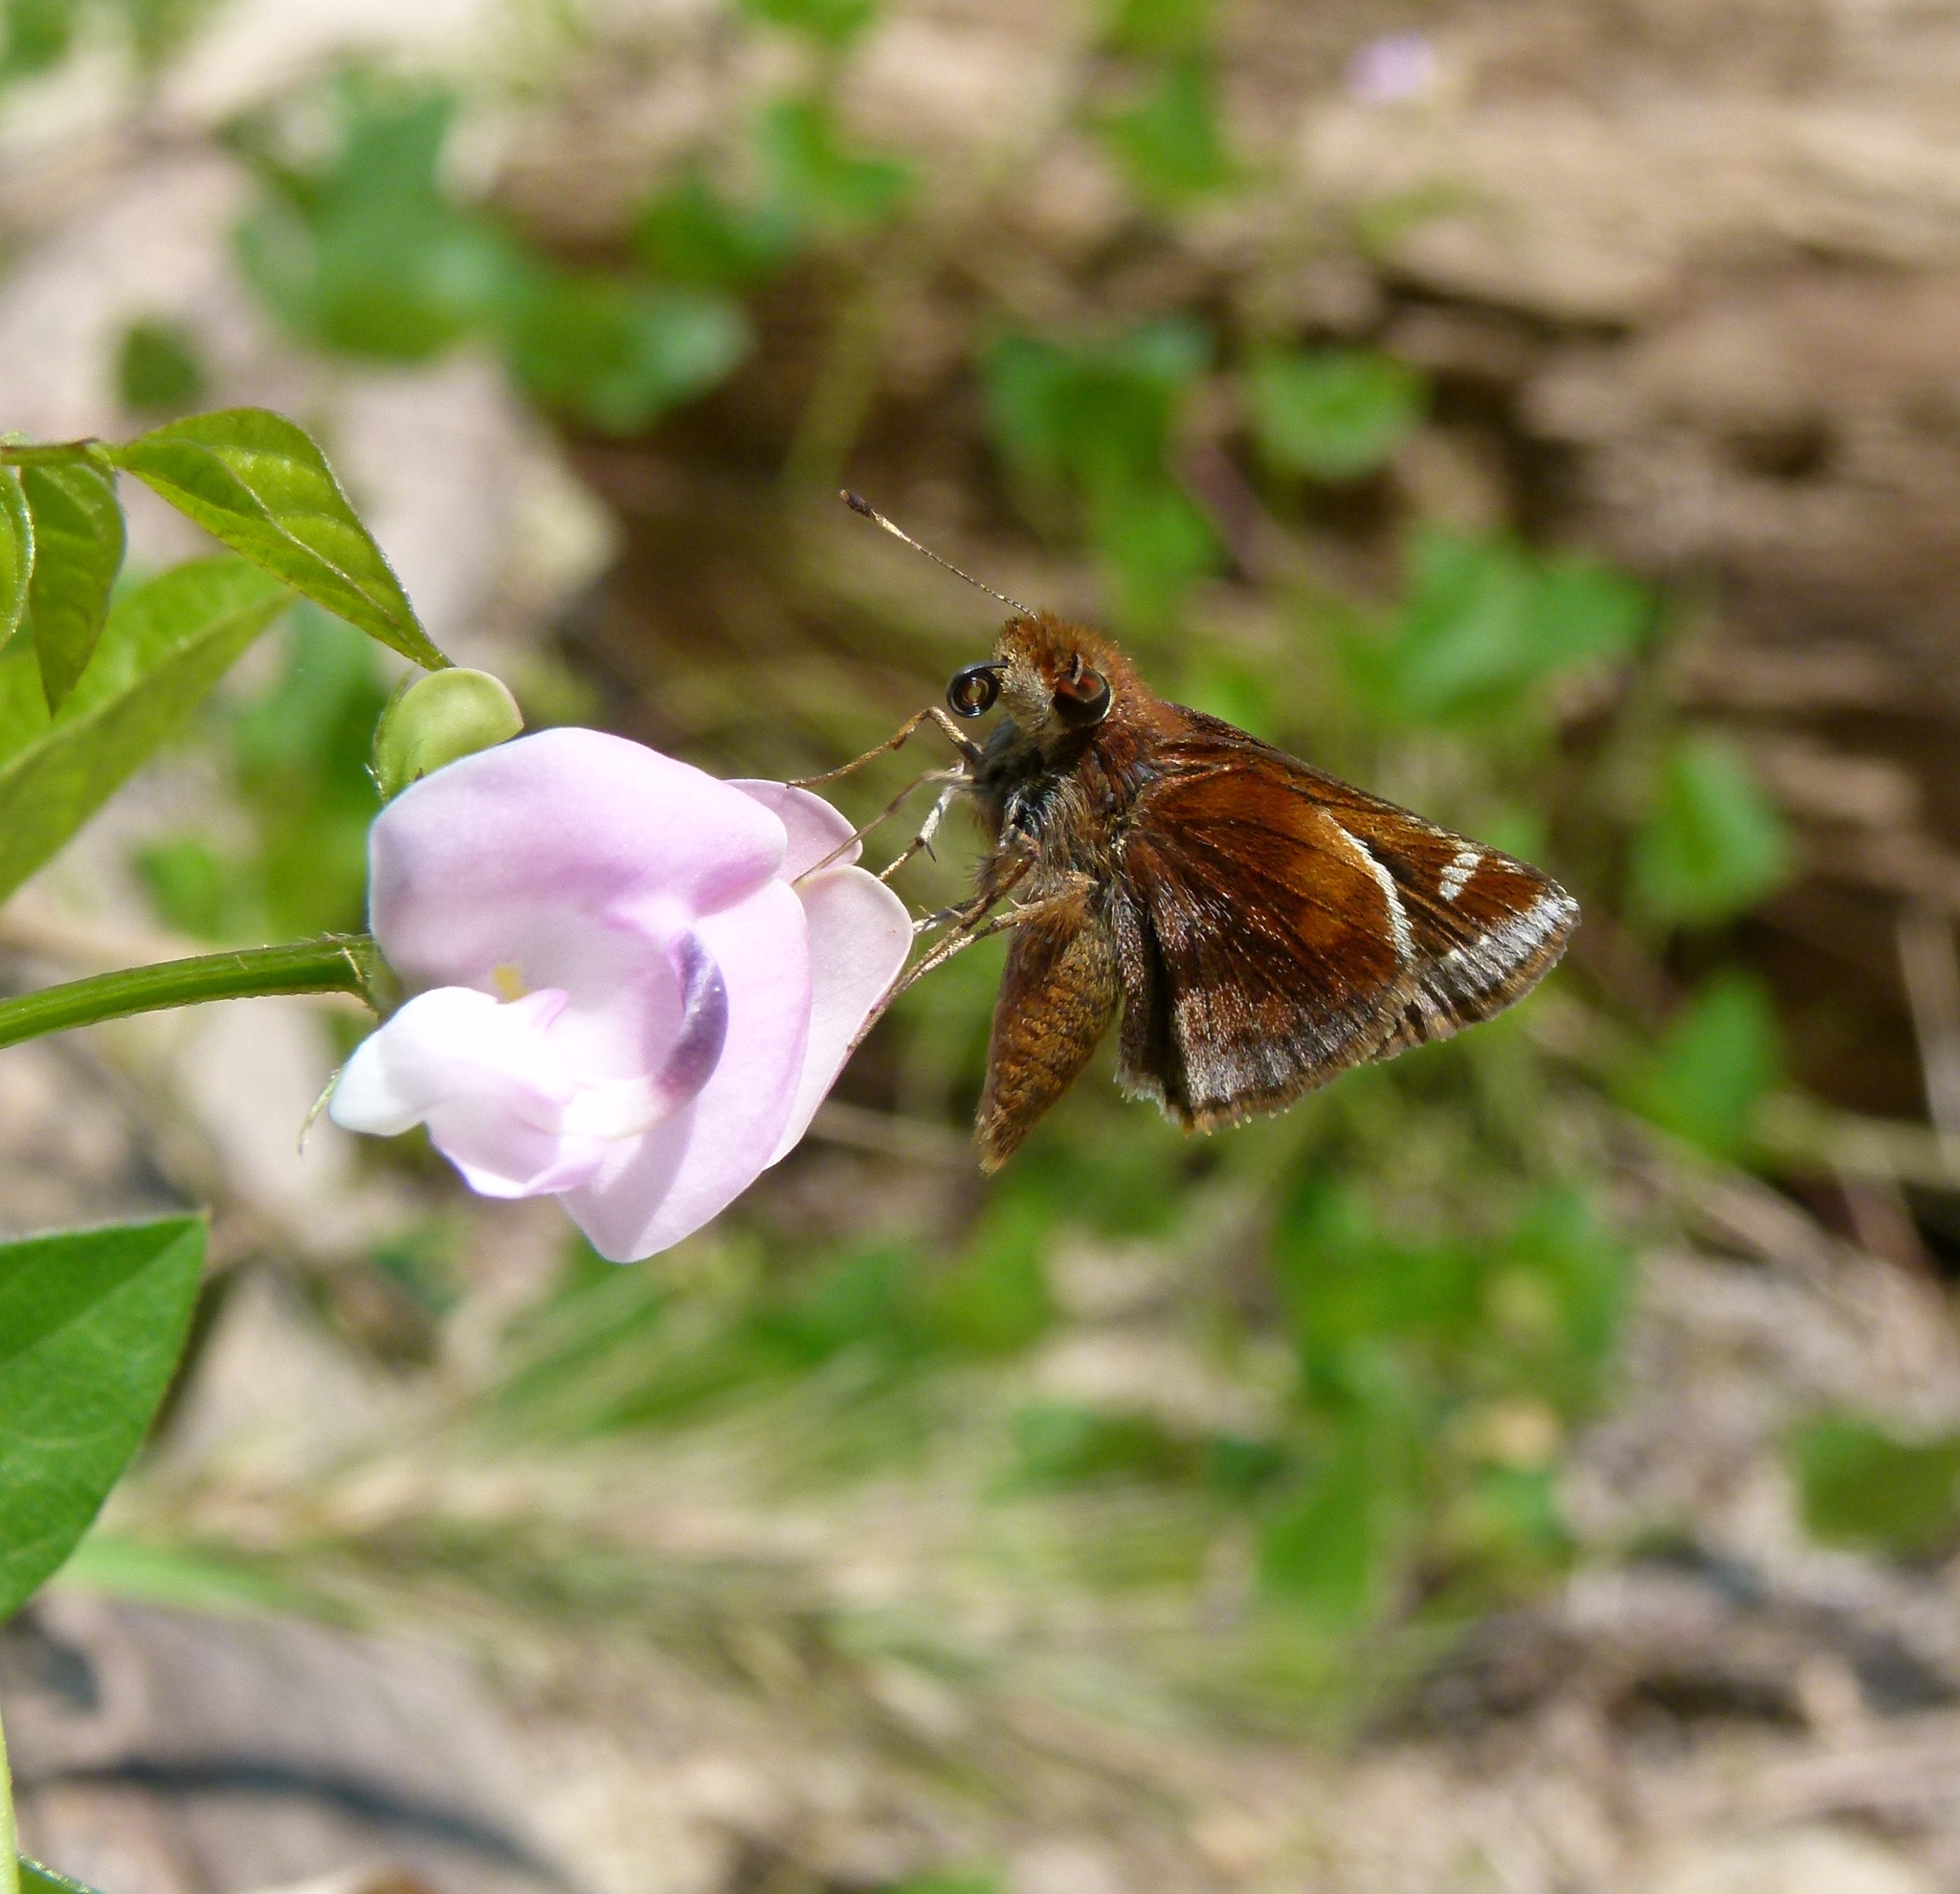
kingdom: Animalia
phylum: Arthropoda
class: Insecta
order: Lepidoptera
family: Hesperiidae
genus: Lon
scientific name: Lon zabulon
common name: Zabulon skipper
